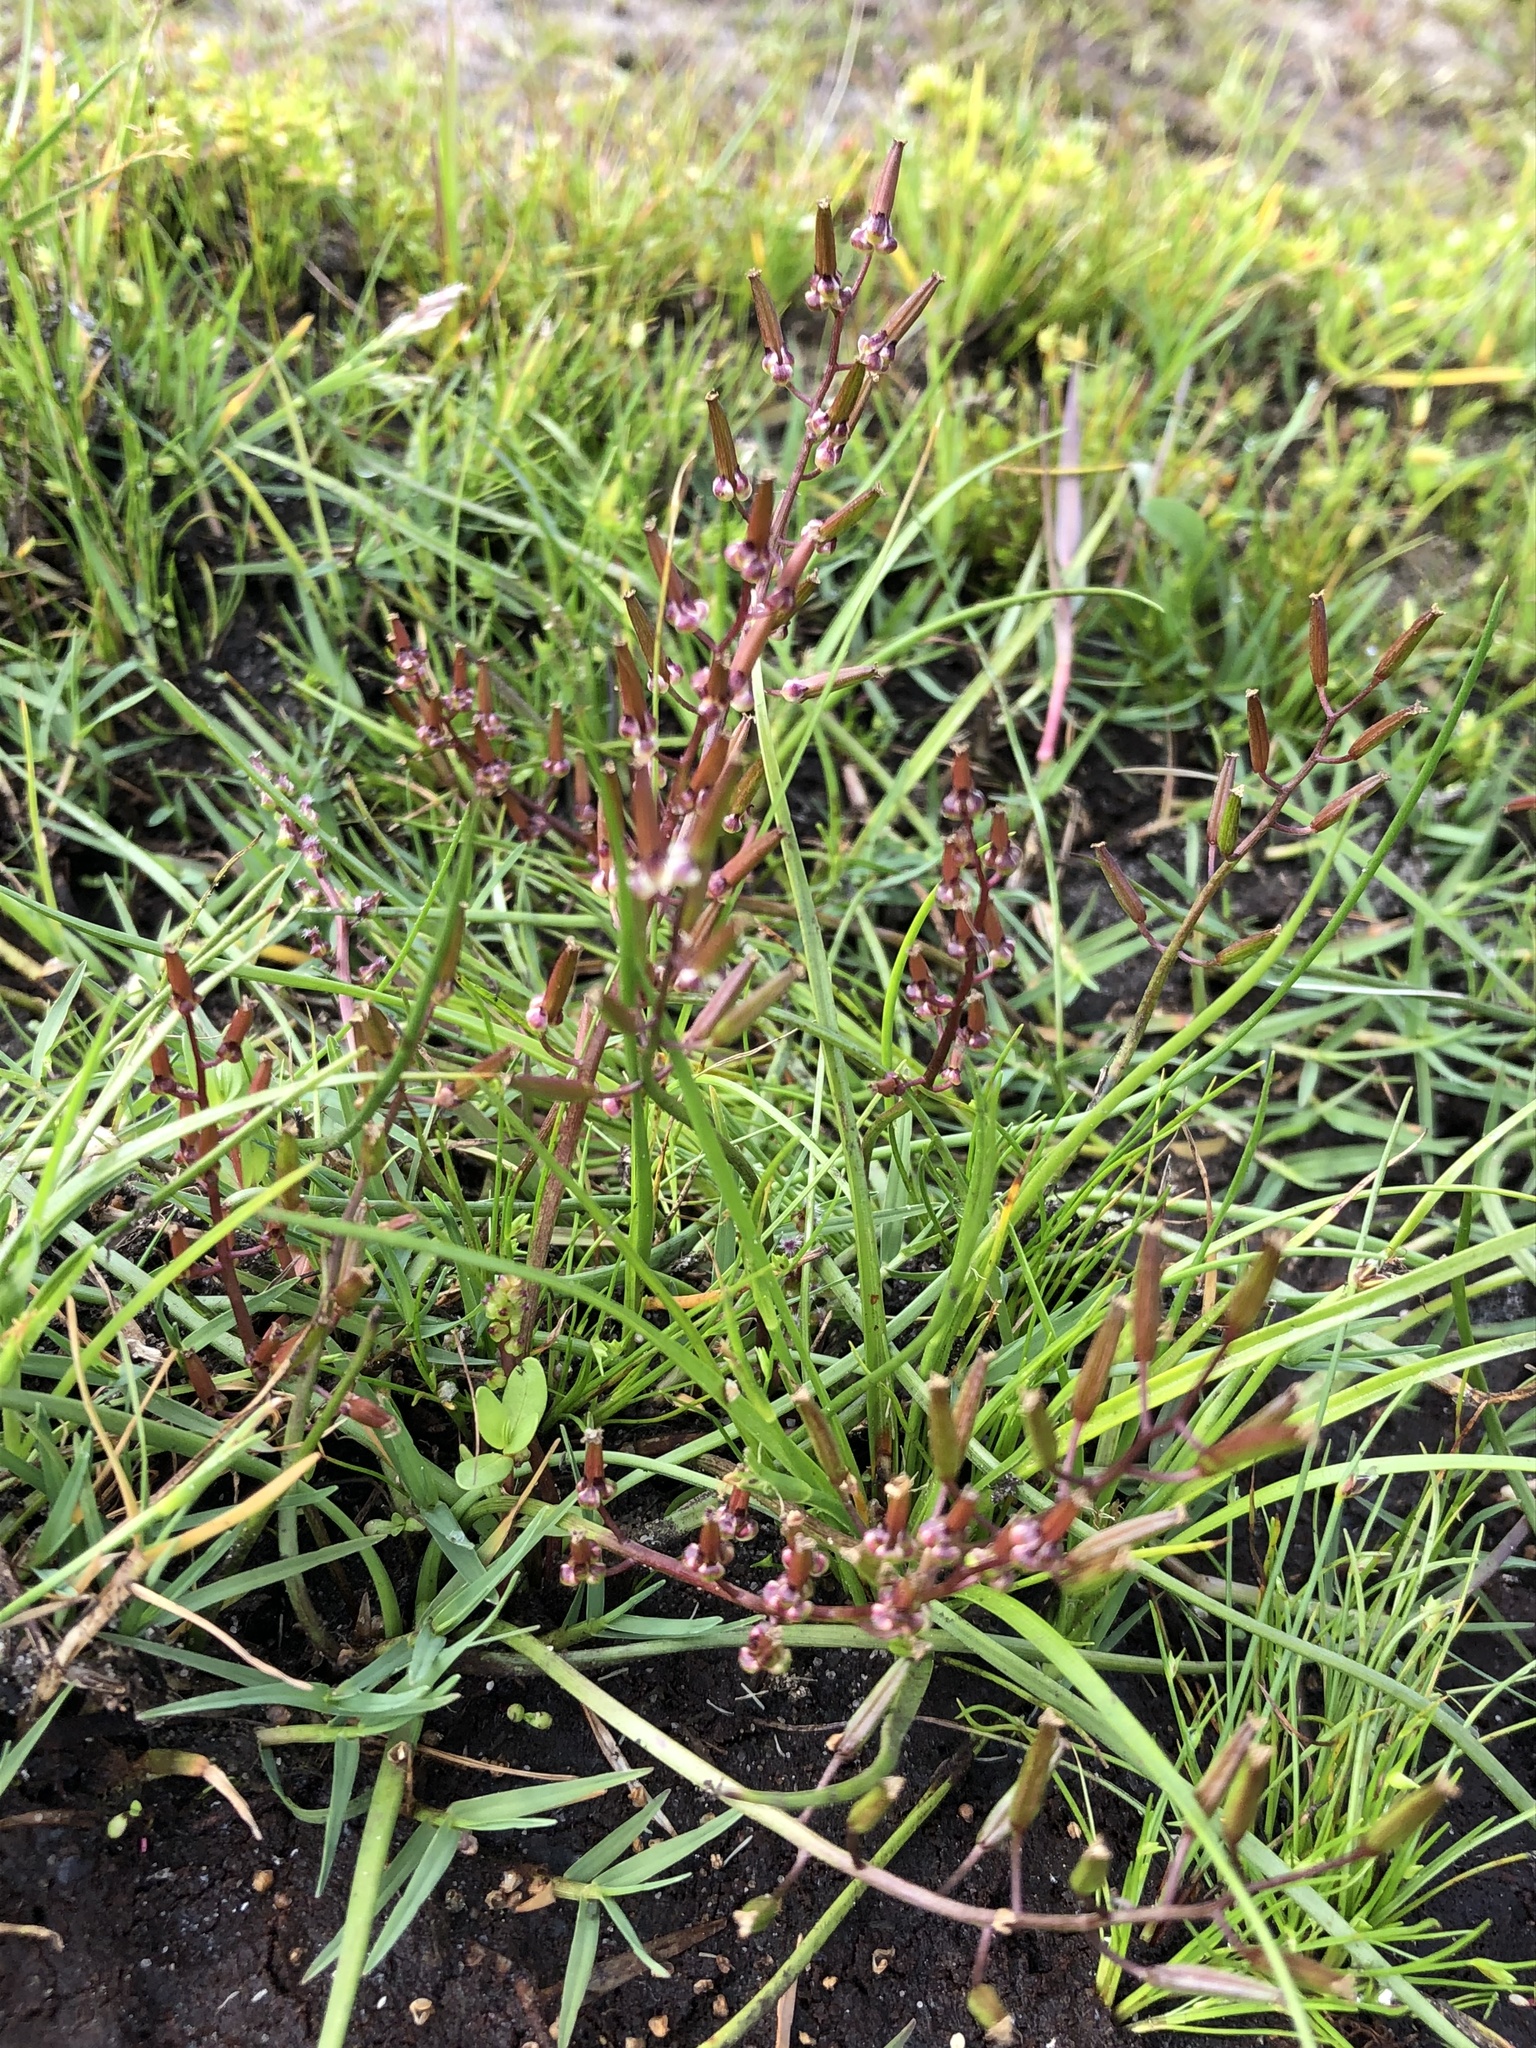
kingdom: Plantae
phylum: Tracheophyta
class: Liliopsida
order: Alismatales
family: Juncaginaceae
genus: Triglochin
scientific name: Triglochin bulbosa
